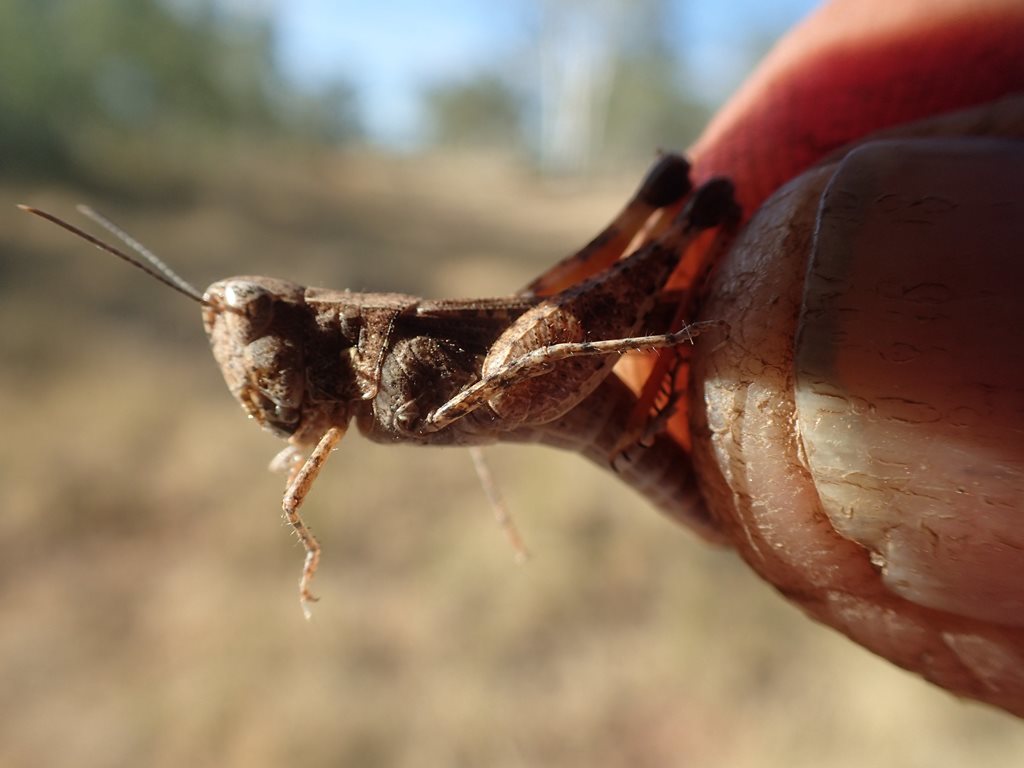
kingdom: Animalia
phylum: Arthropoda
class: Insecta
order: Orthoptera
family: Acrididae
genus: Azelota
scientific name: Azelota
